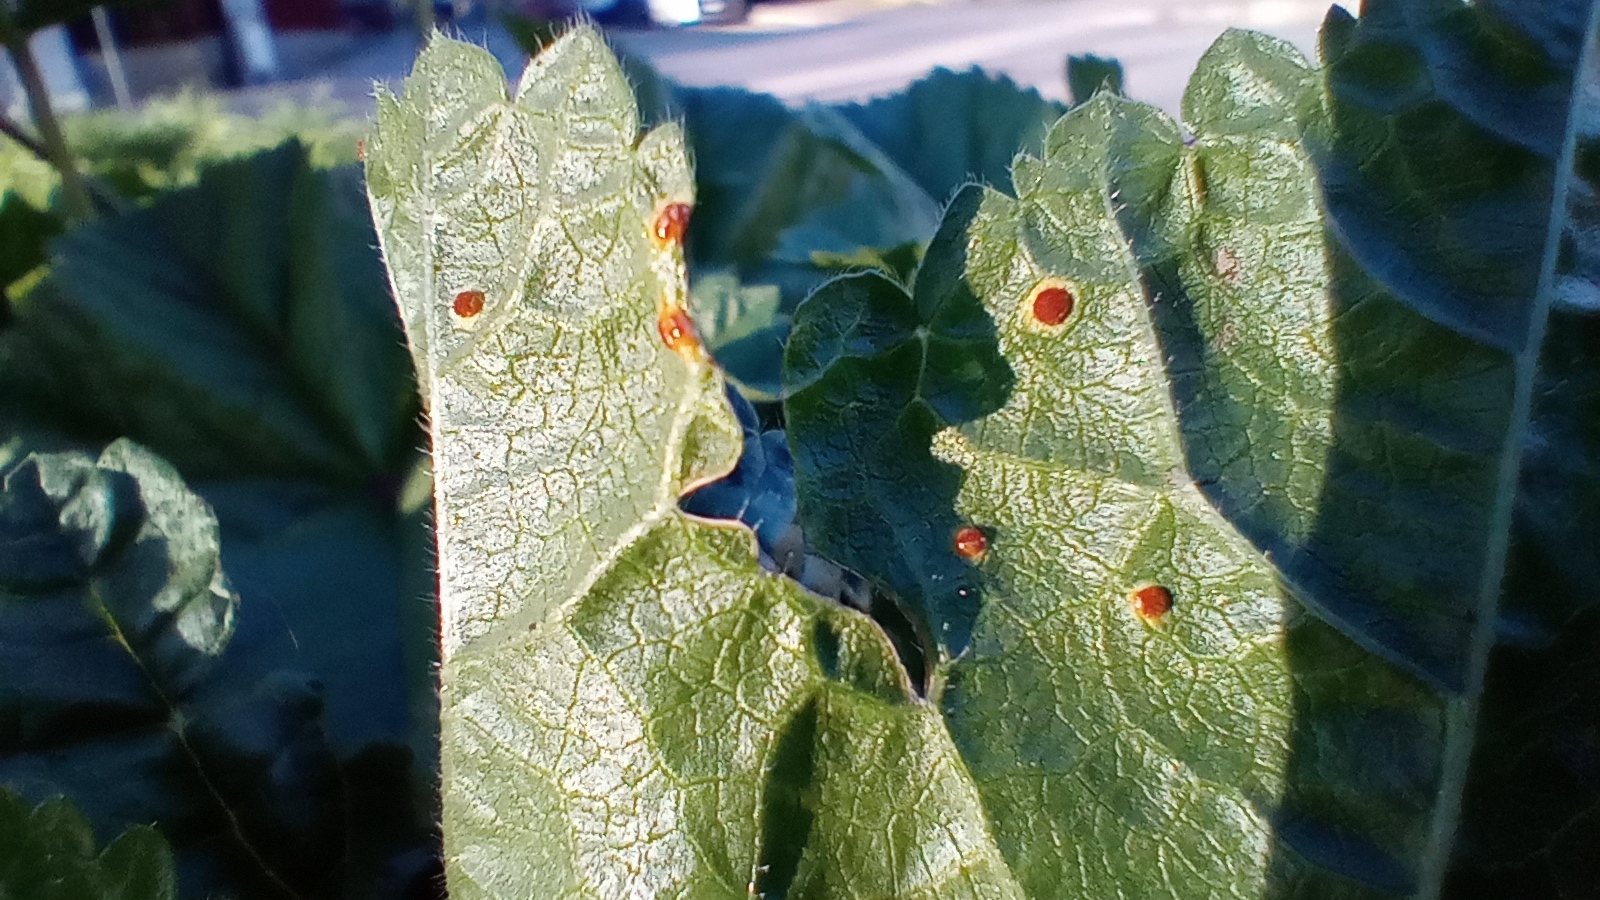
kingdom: Fungi
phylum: Basidiomycota
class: Pucciniomycetes
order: Pucciniales
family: Pucciniaceae
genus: Puccinia
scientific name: Puccinia malvacearum
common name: Hollyhock rust
